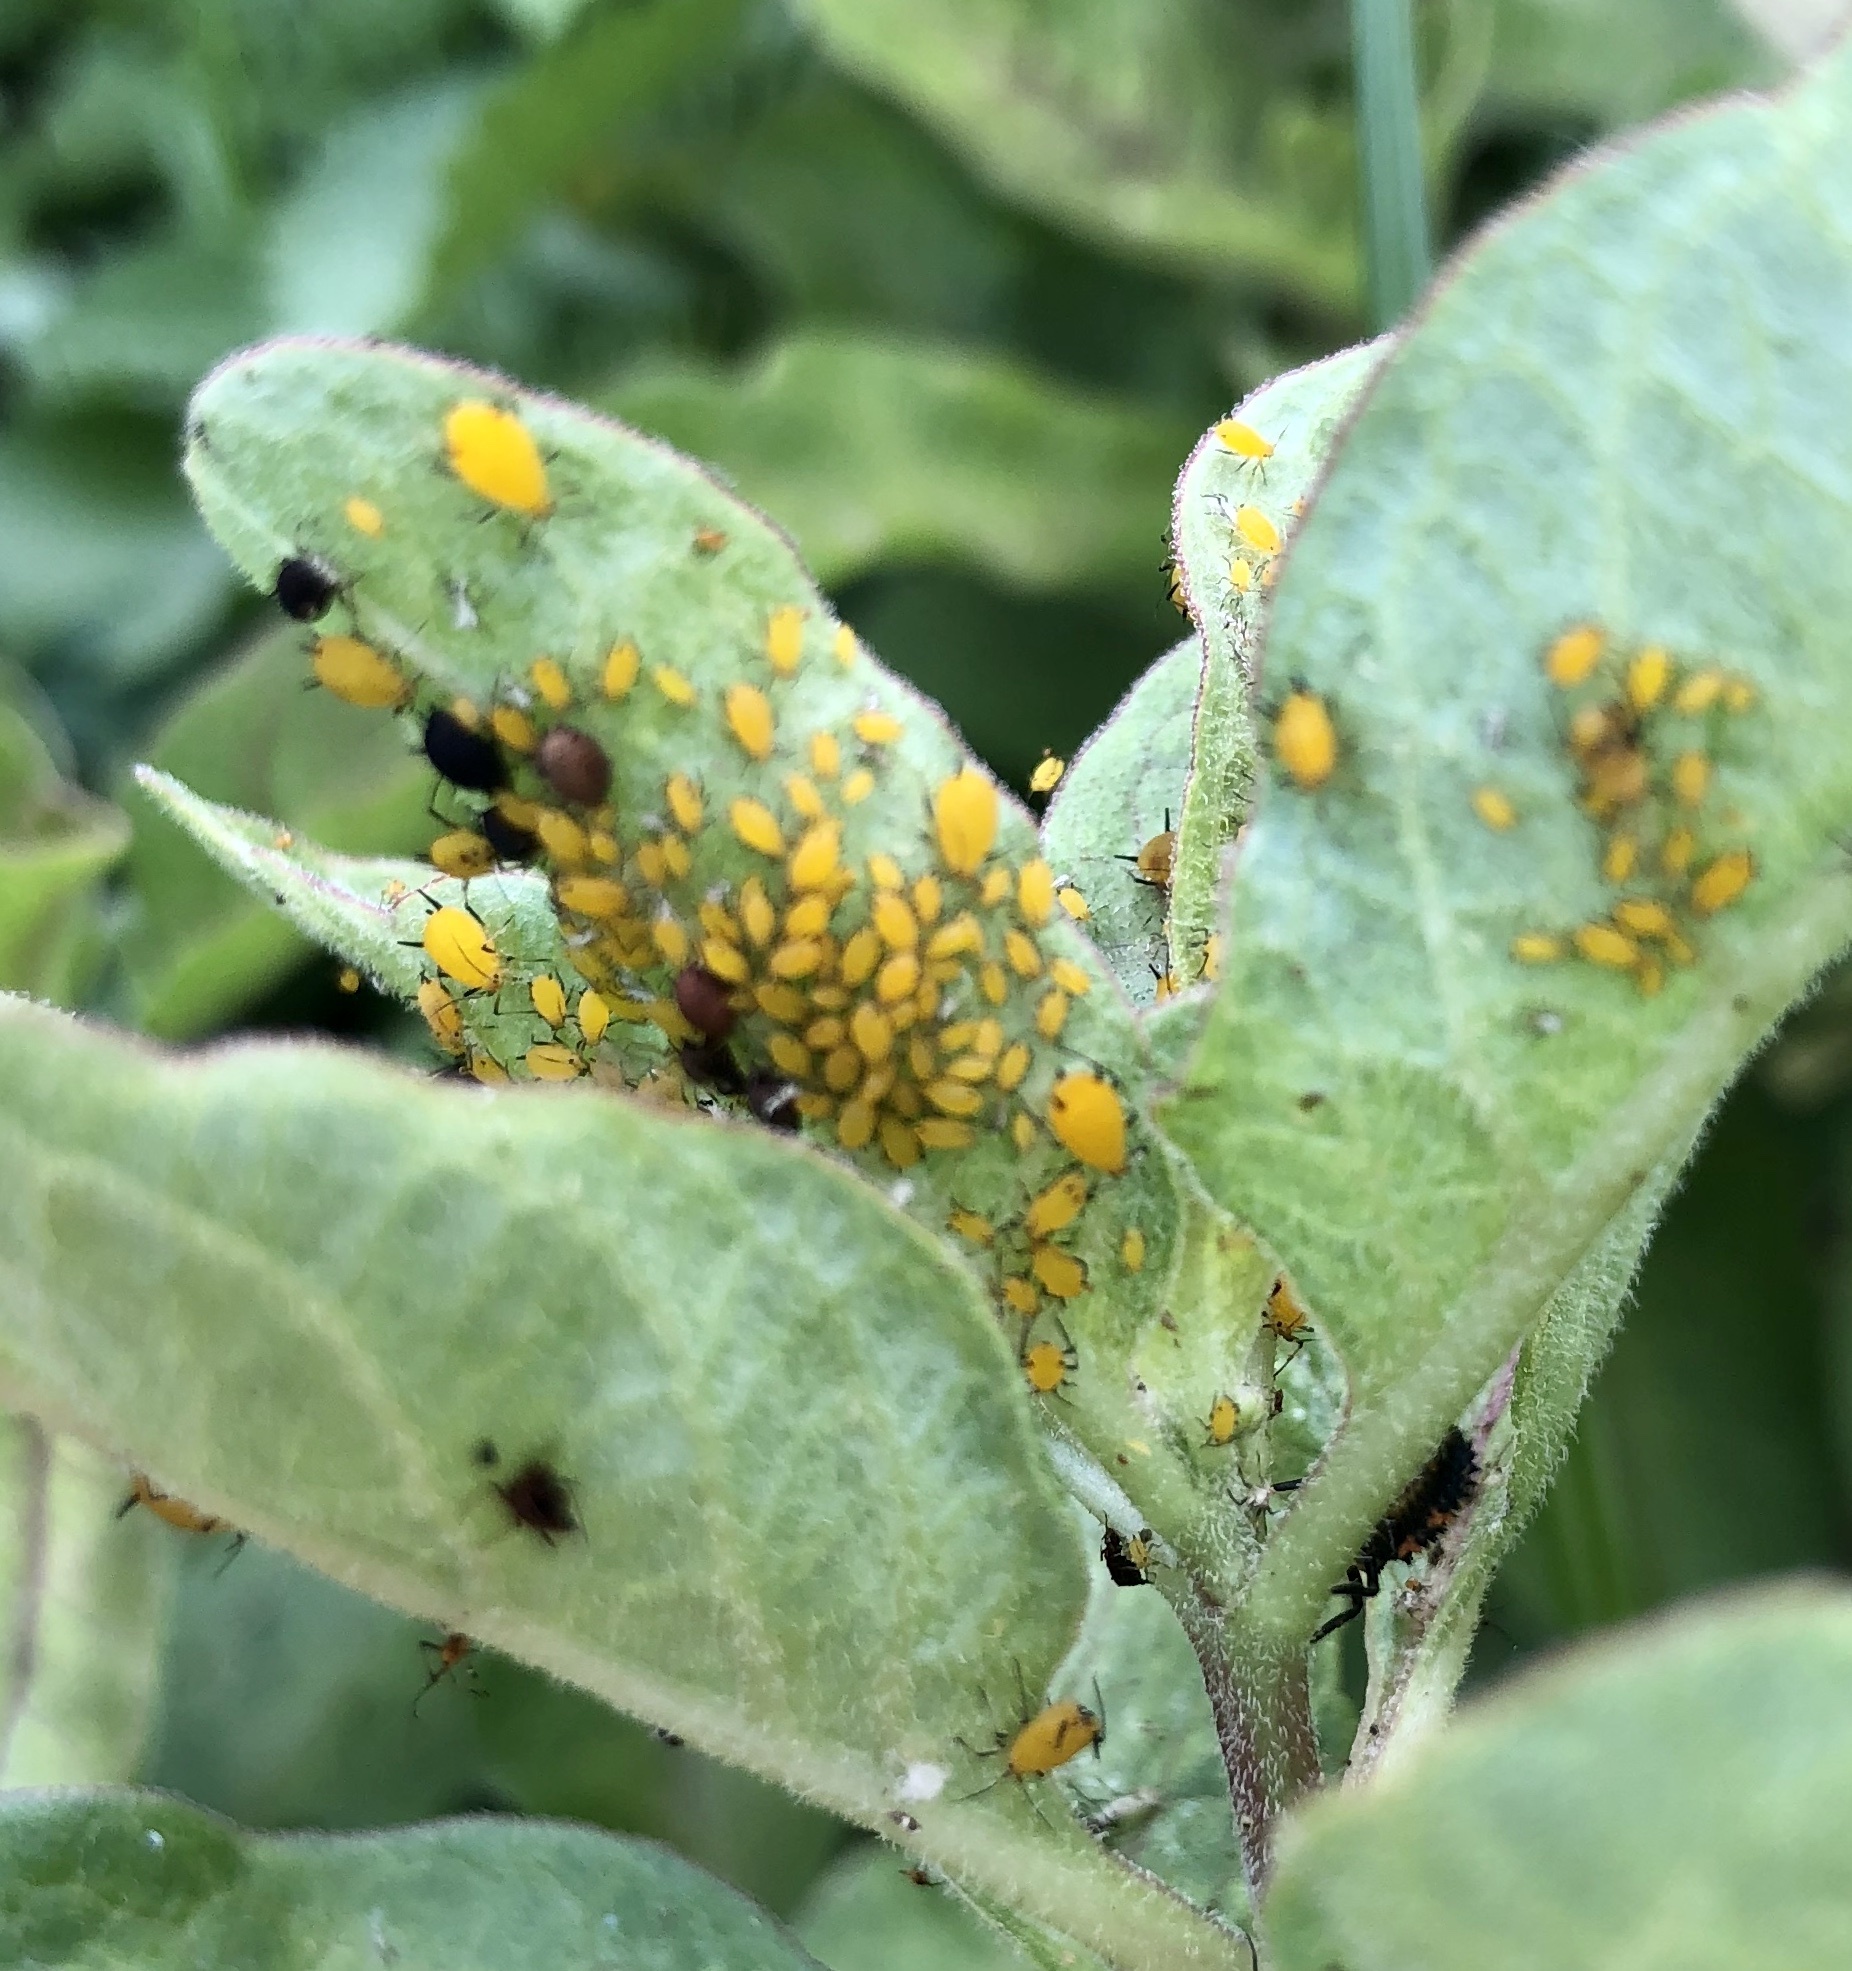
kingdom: Animalia
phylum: Arthropoda
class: Insecta
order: Hemiptera
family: Aphididae
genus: Aphis
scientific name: Aphis nerii
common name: Oleander aphid
